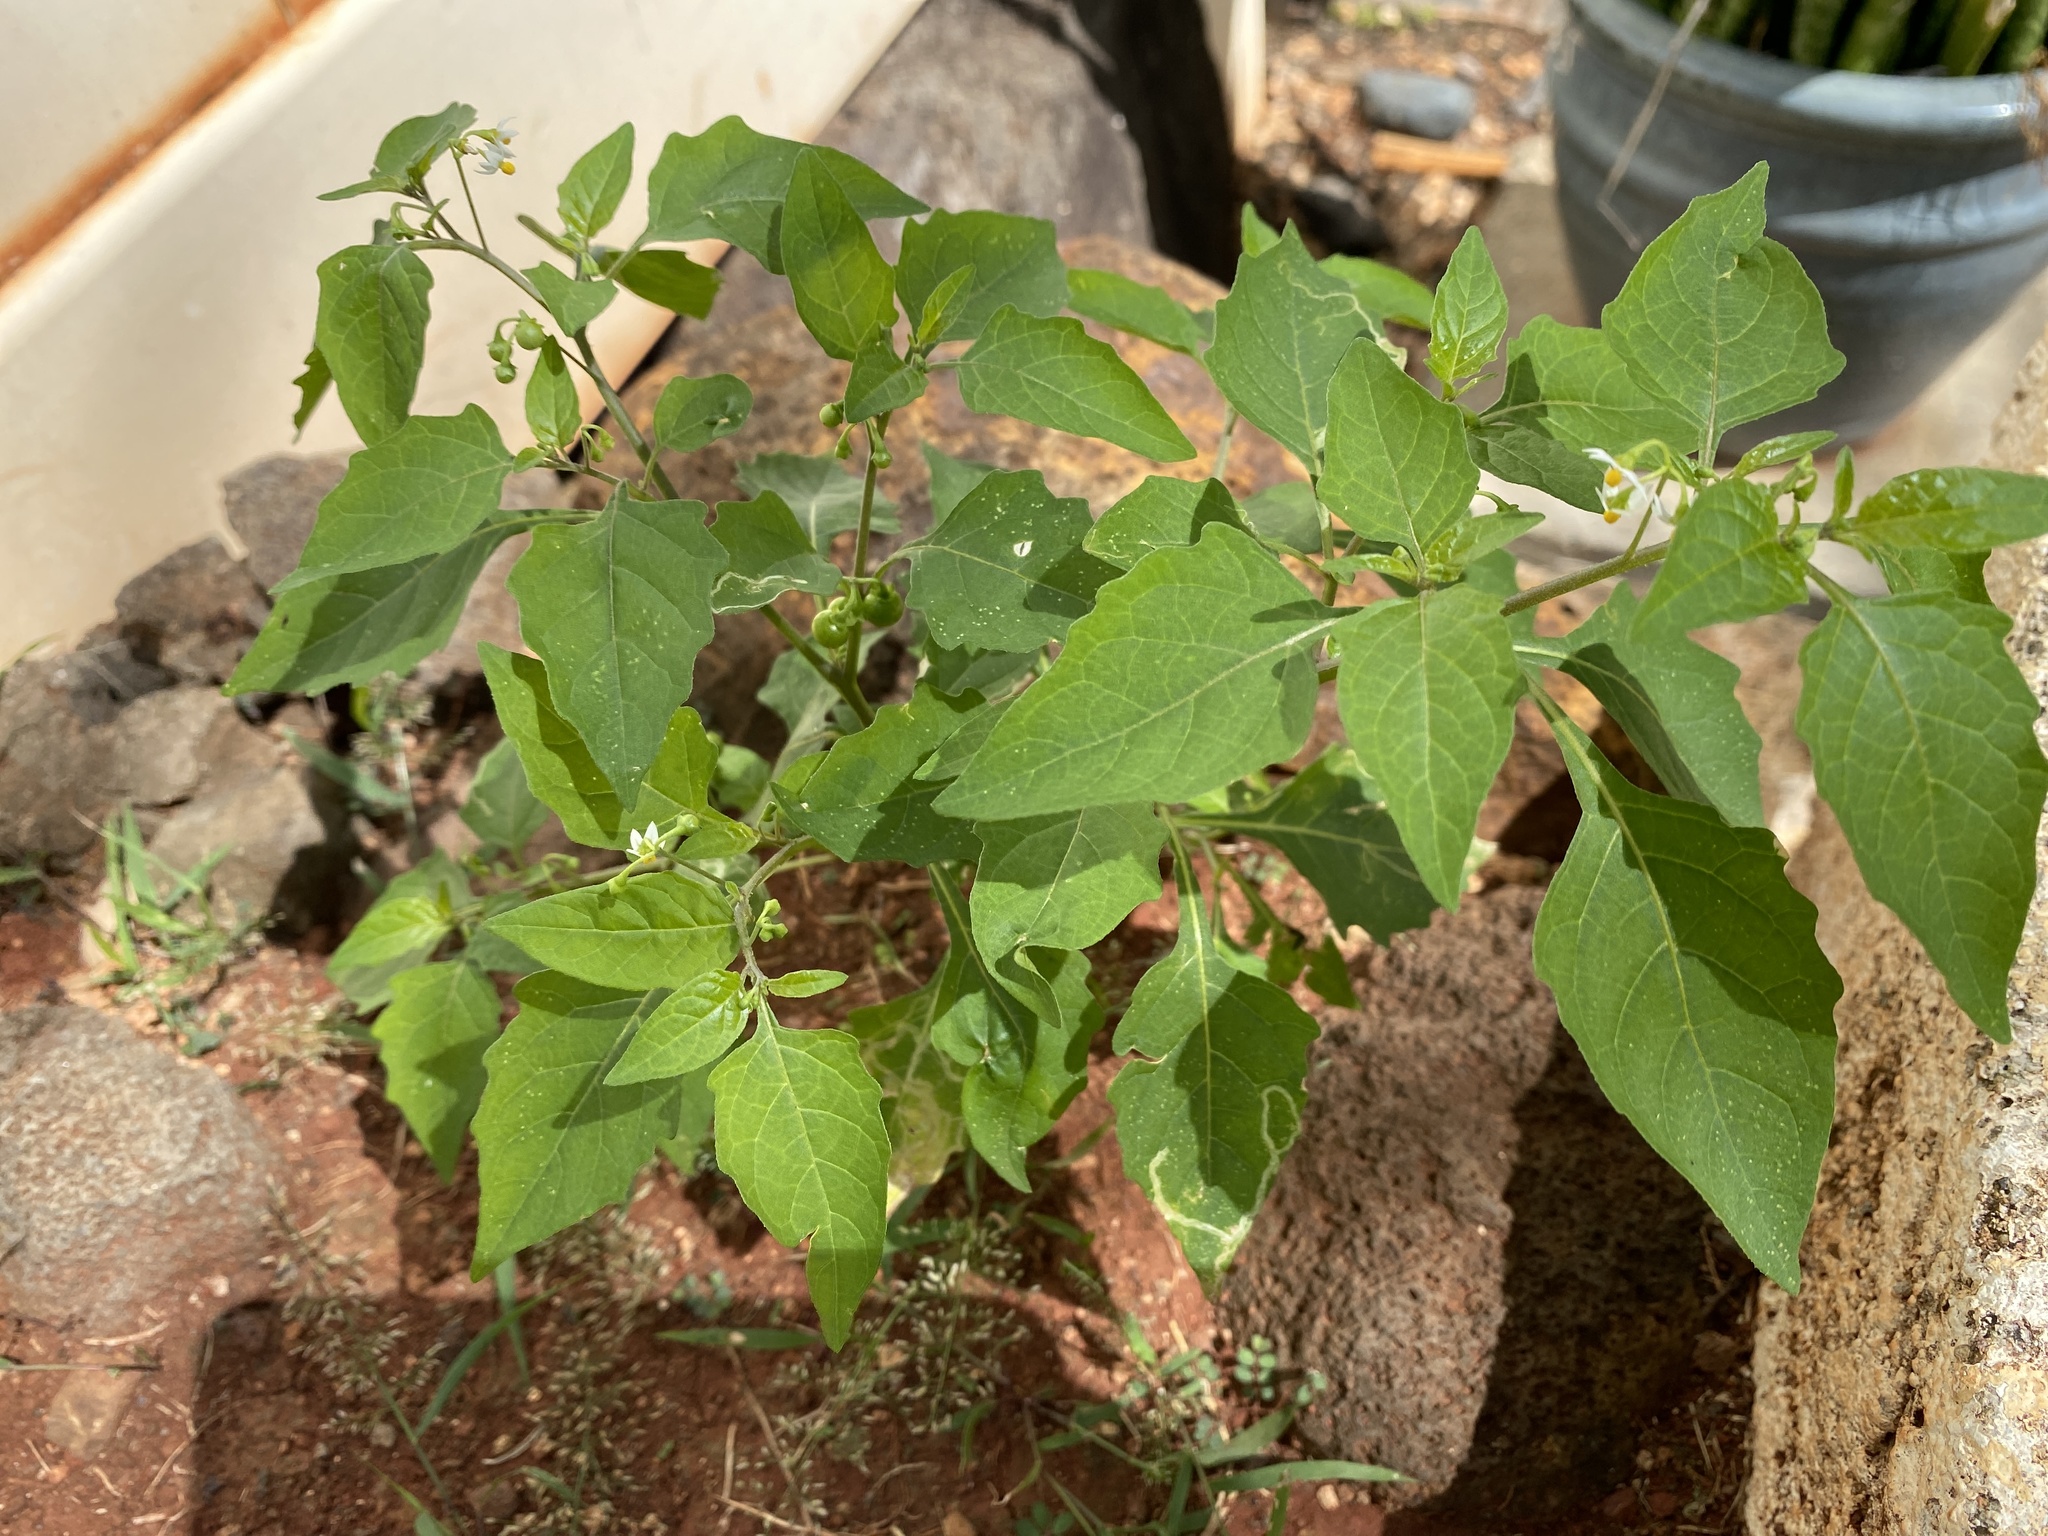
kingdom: Plantae
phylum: Tracheophyta
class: Magnoliopsida
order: Solanales
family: Solanaceae
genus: Solanum
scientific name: Solanum americanum
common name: American black nightshade
